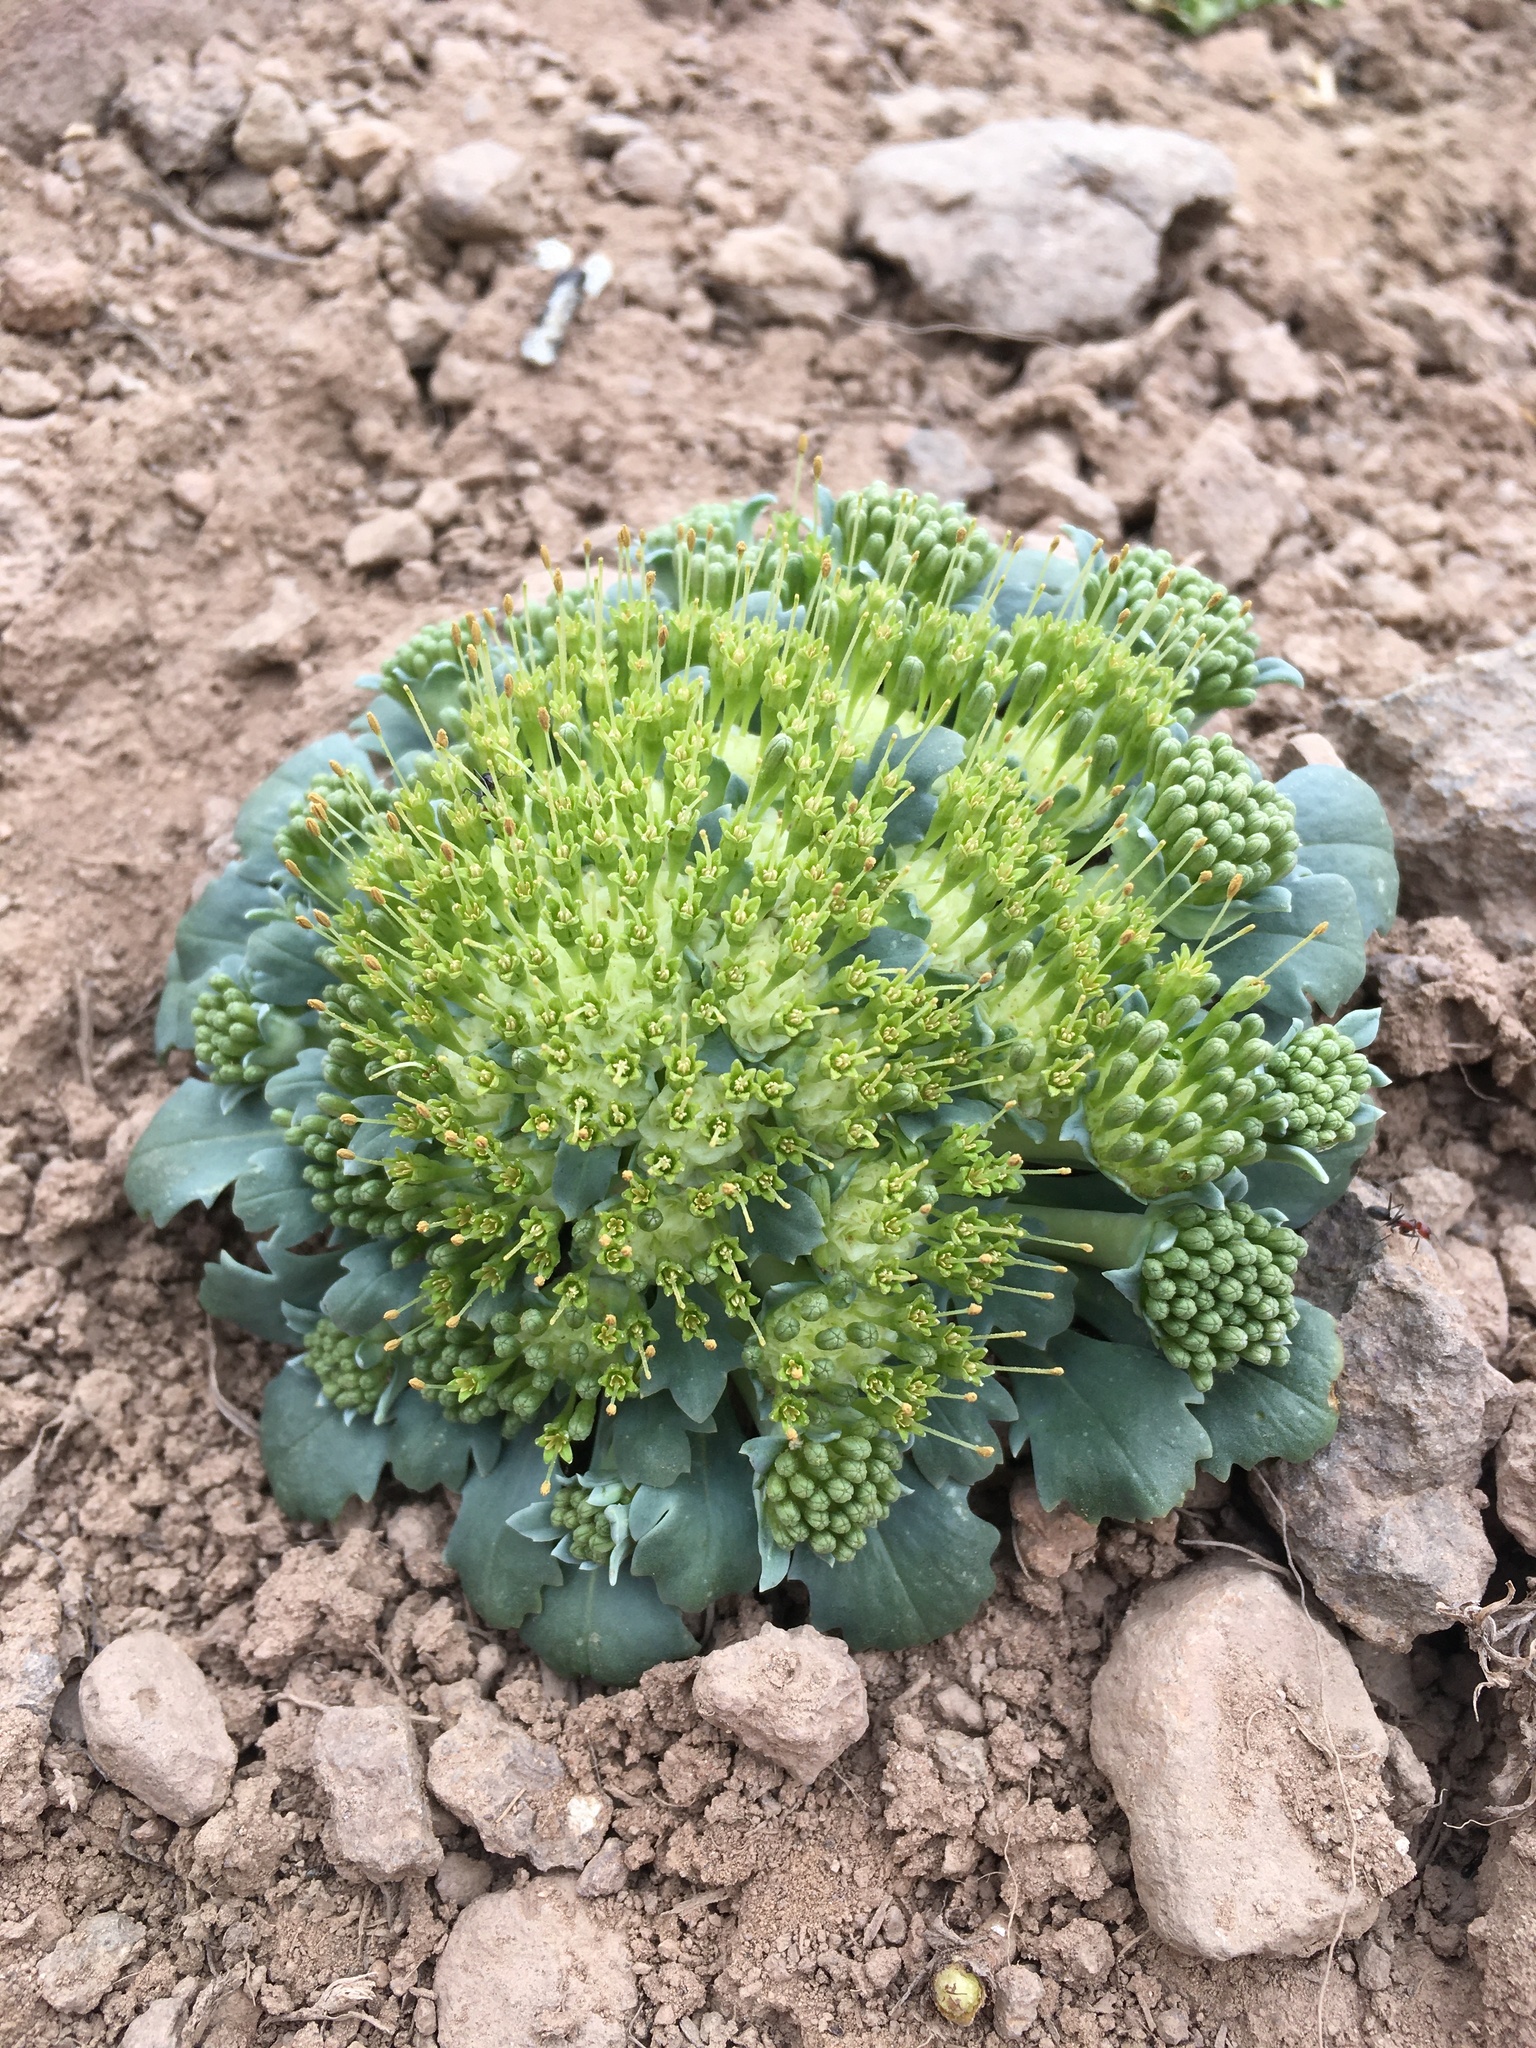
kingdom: Plantae
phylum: Tracheophyta
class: Magnoliopsida
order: Asterales
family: Calyceraceae
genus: Gamocarpha
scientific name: Gamocarpha scapigera
